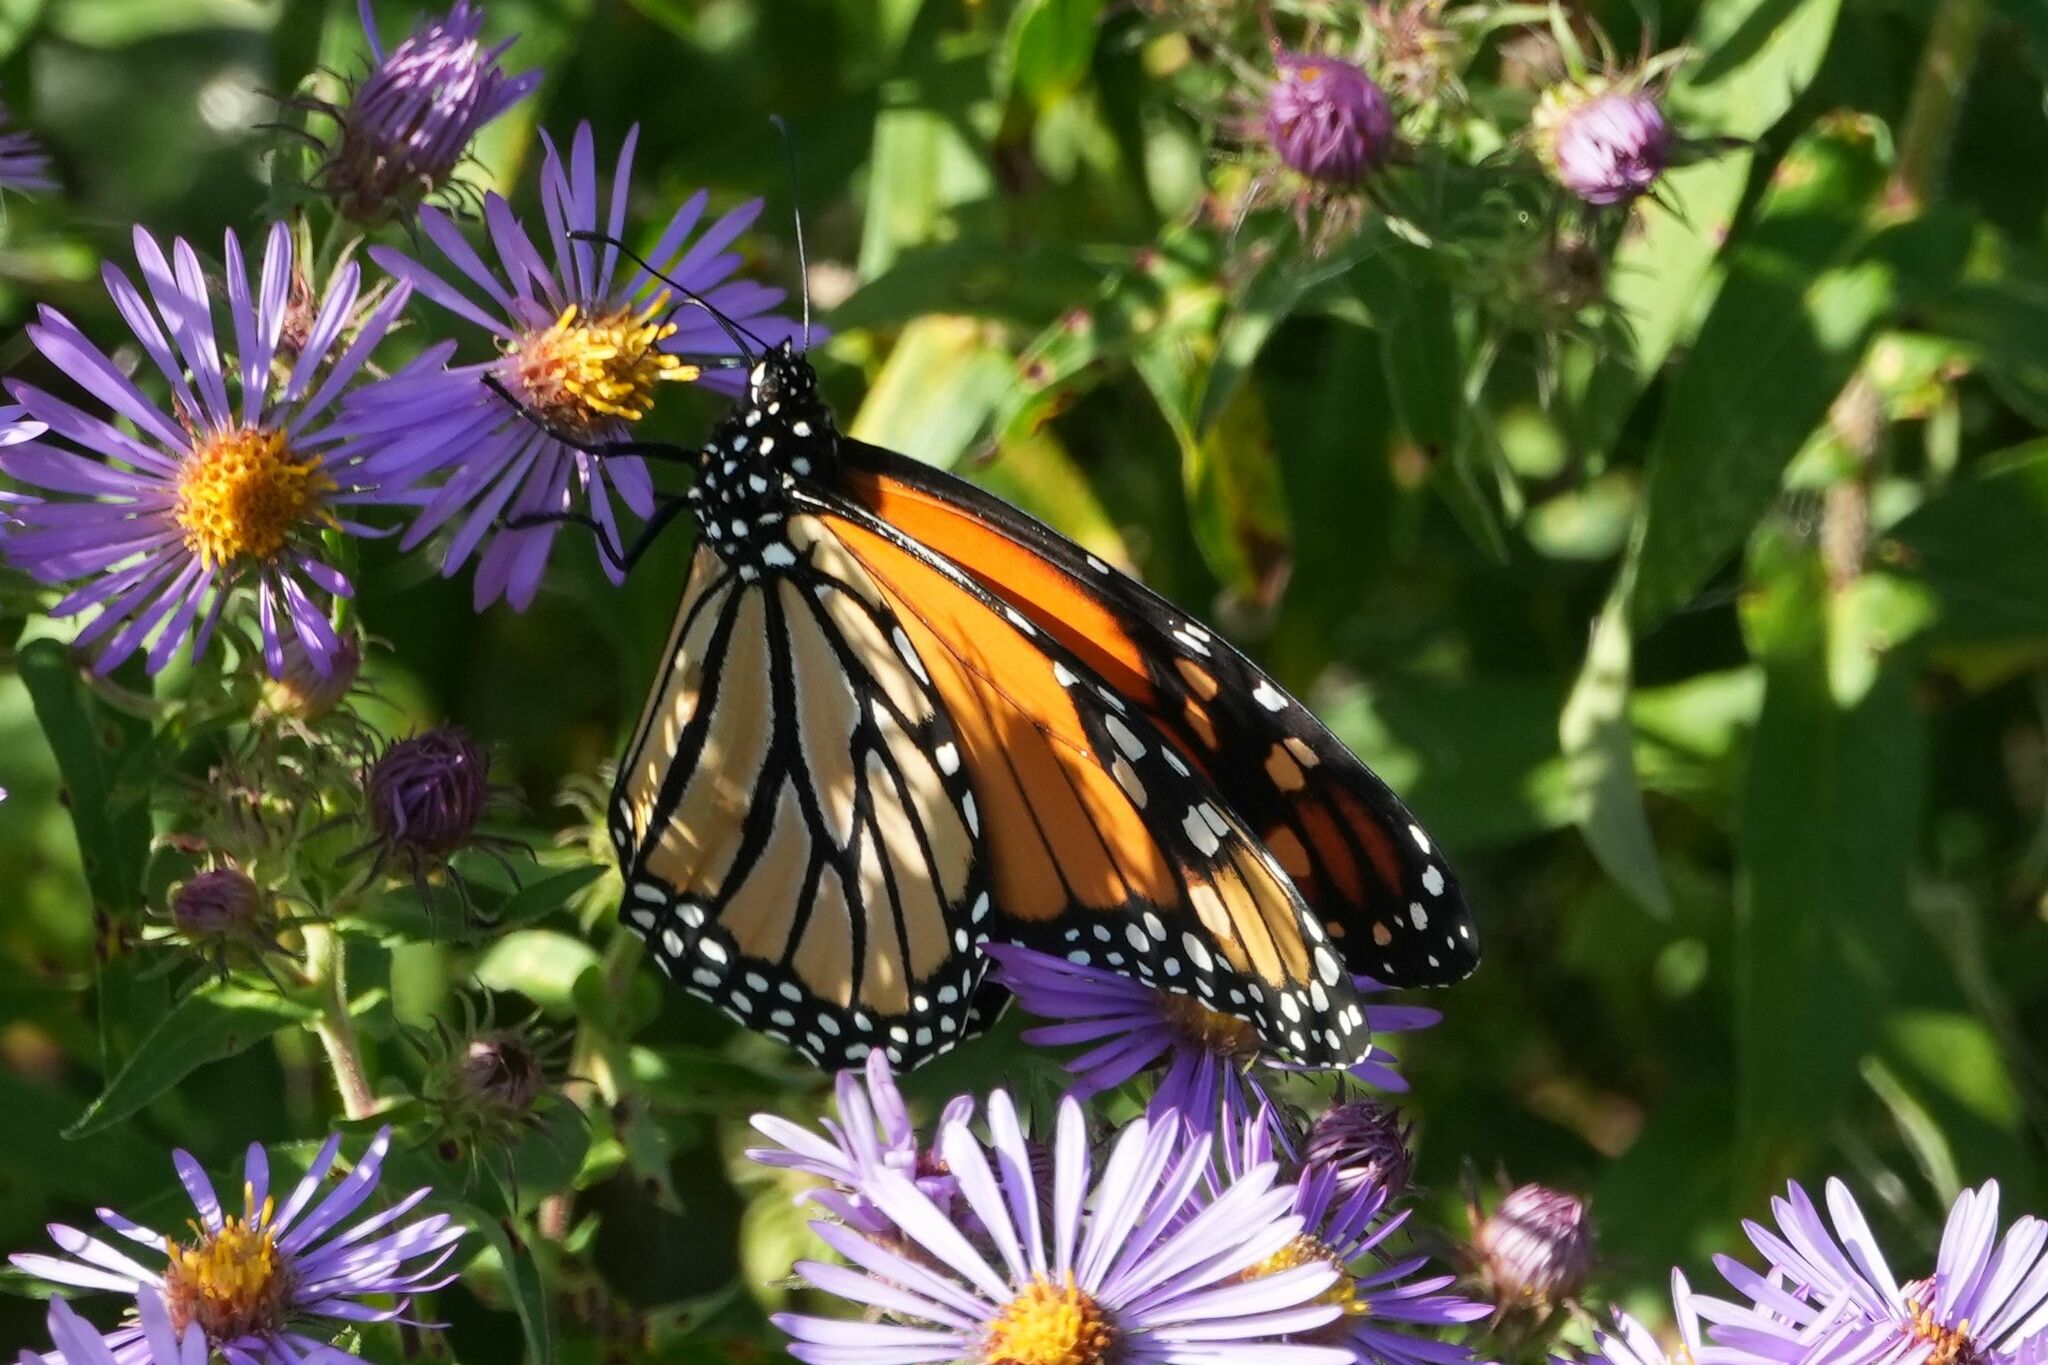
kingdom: Animalia
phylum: Arthropoda
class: Insecta
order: Lepidoptera
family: Nymphalidae
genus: Danaus
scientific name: Danaus plexippus
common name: Monarch
